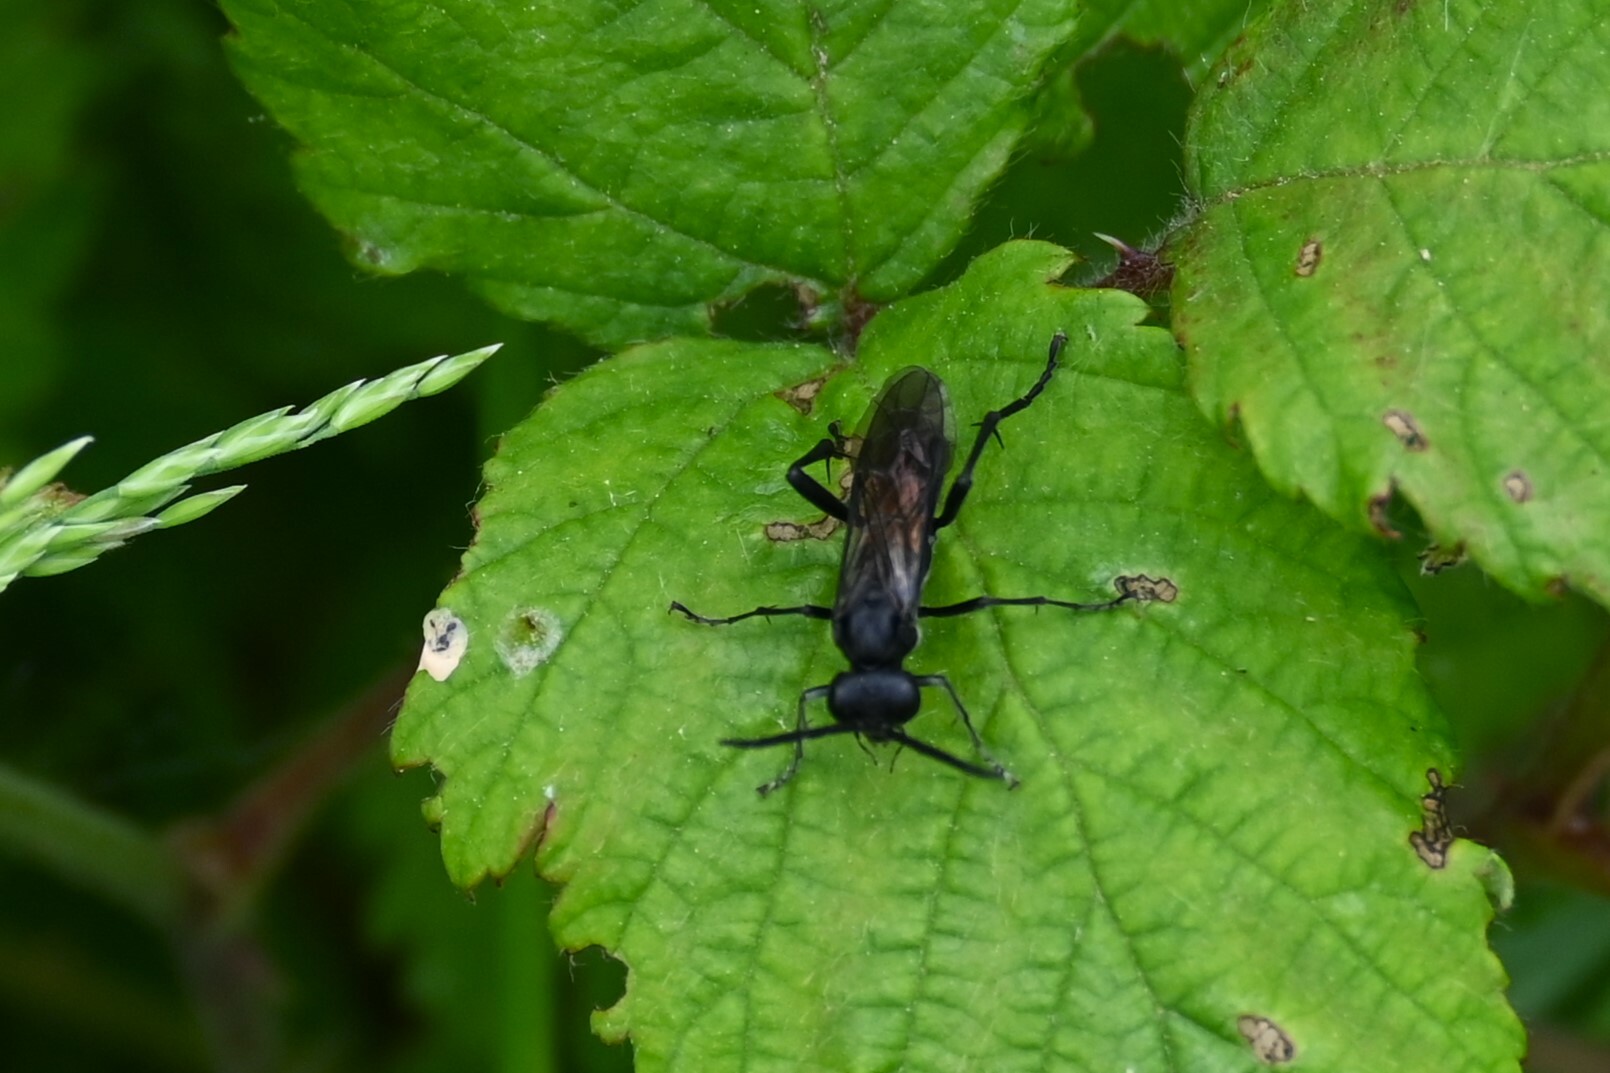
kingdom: Animalia
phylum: Arthropoda
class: Insecta
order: Hymenoptera
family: Tenthredinidae
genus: Macrophya
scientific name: Macrophya annulata
